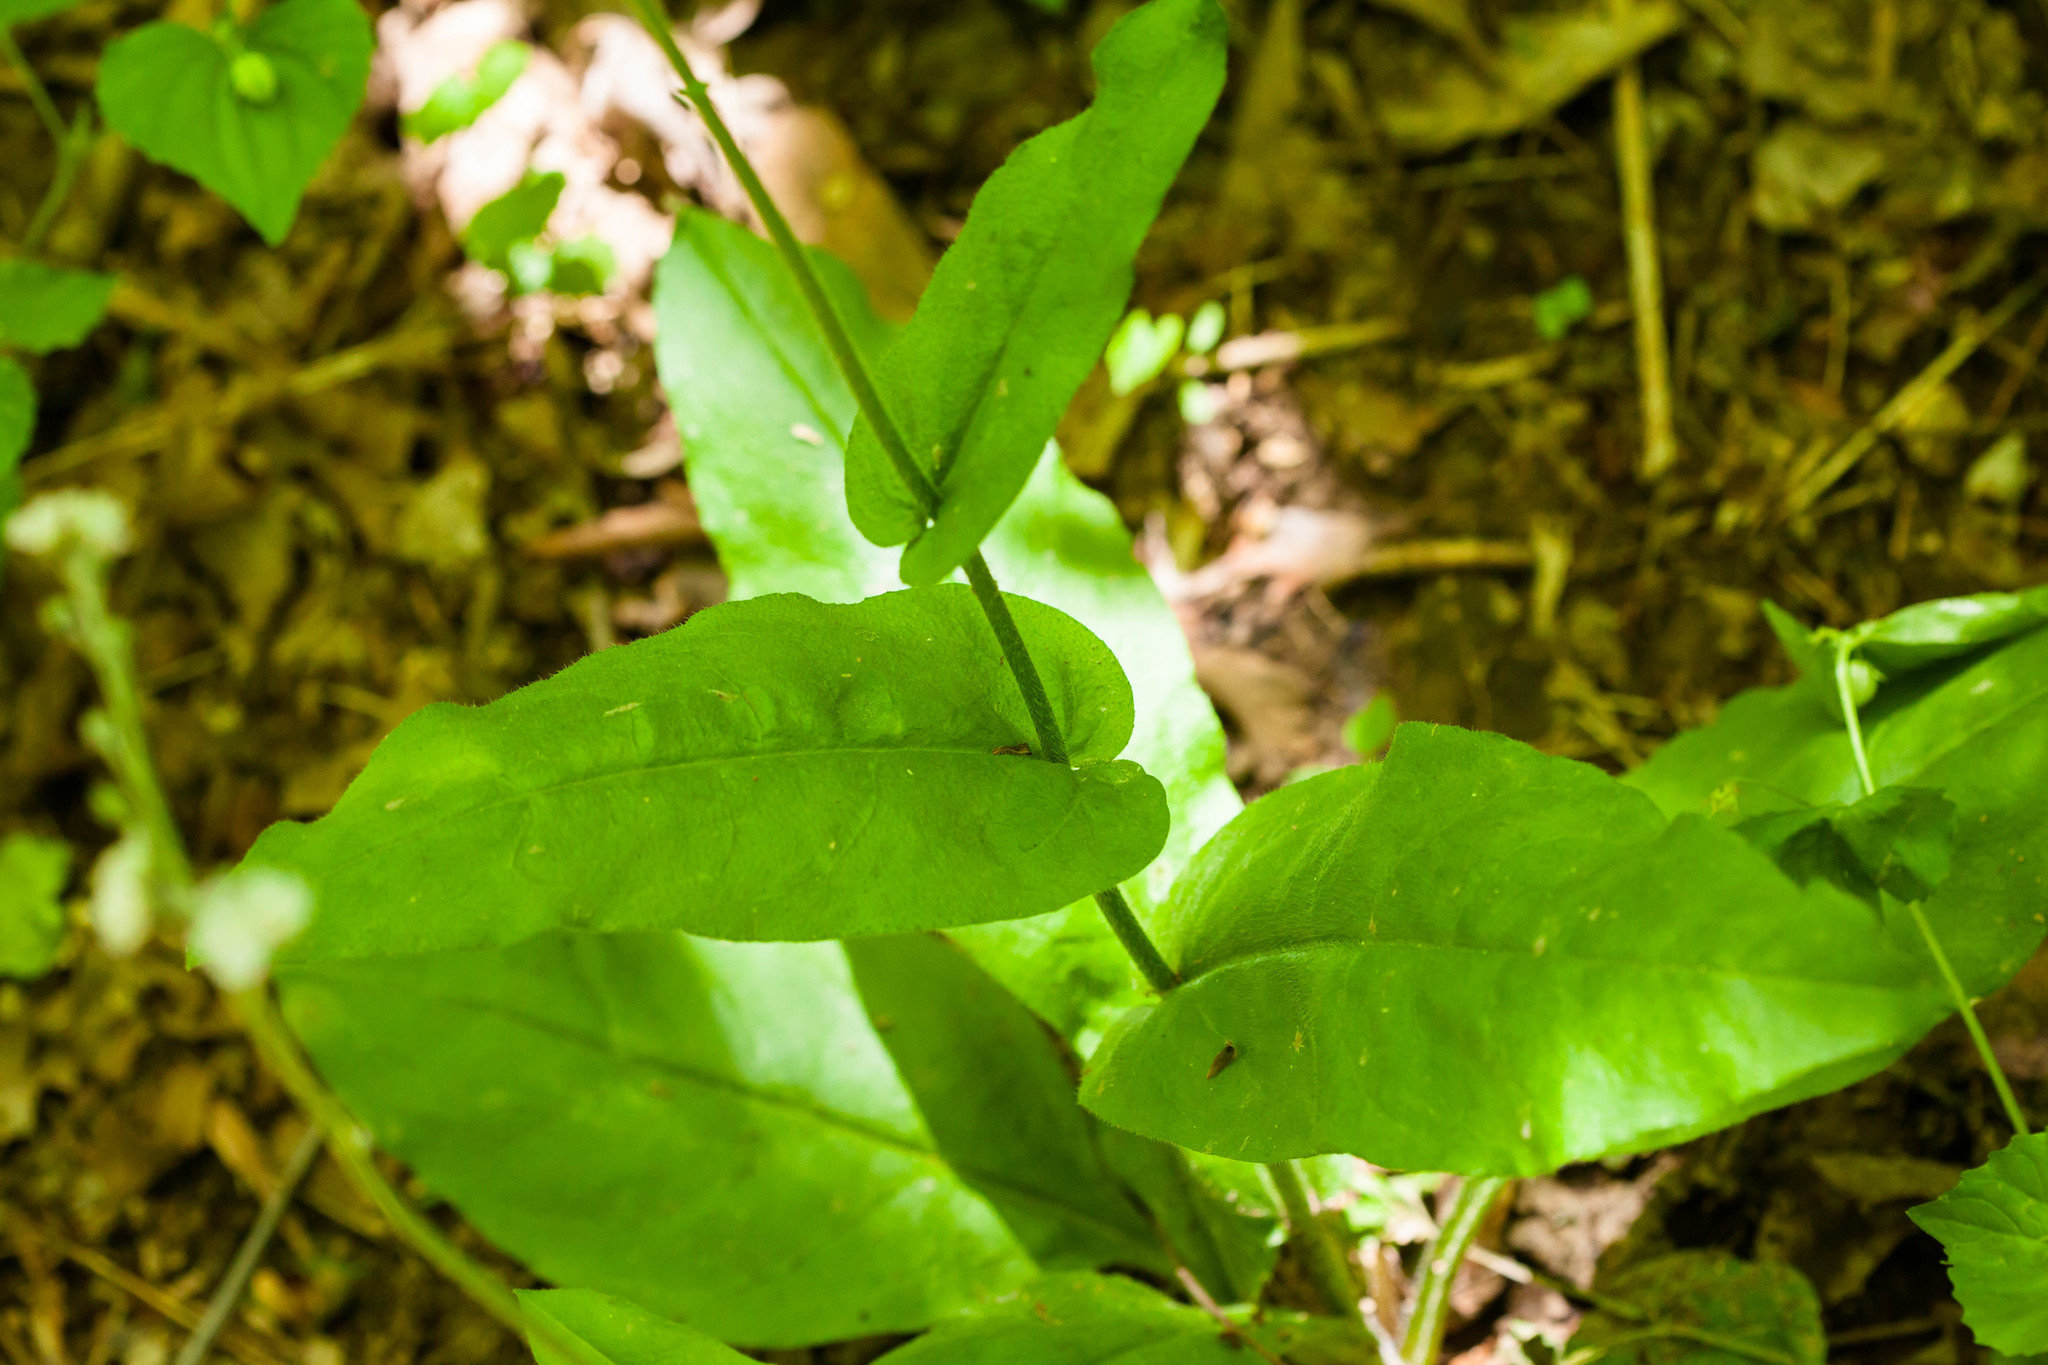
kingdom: Plantae
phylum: Tracheophyta
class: Magnoliopsida
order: Boraginales
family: Boraginaceae
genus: Andersonglossum
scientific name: Andersonglossum virginianum
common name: Wild comfrey
